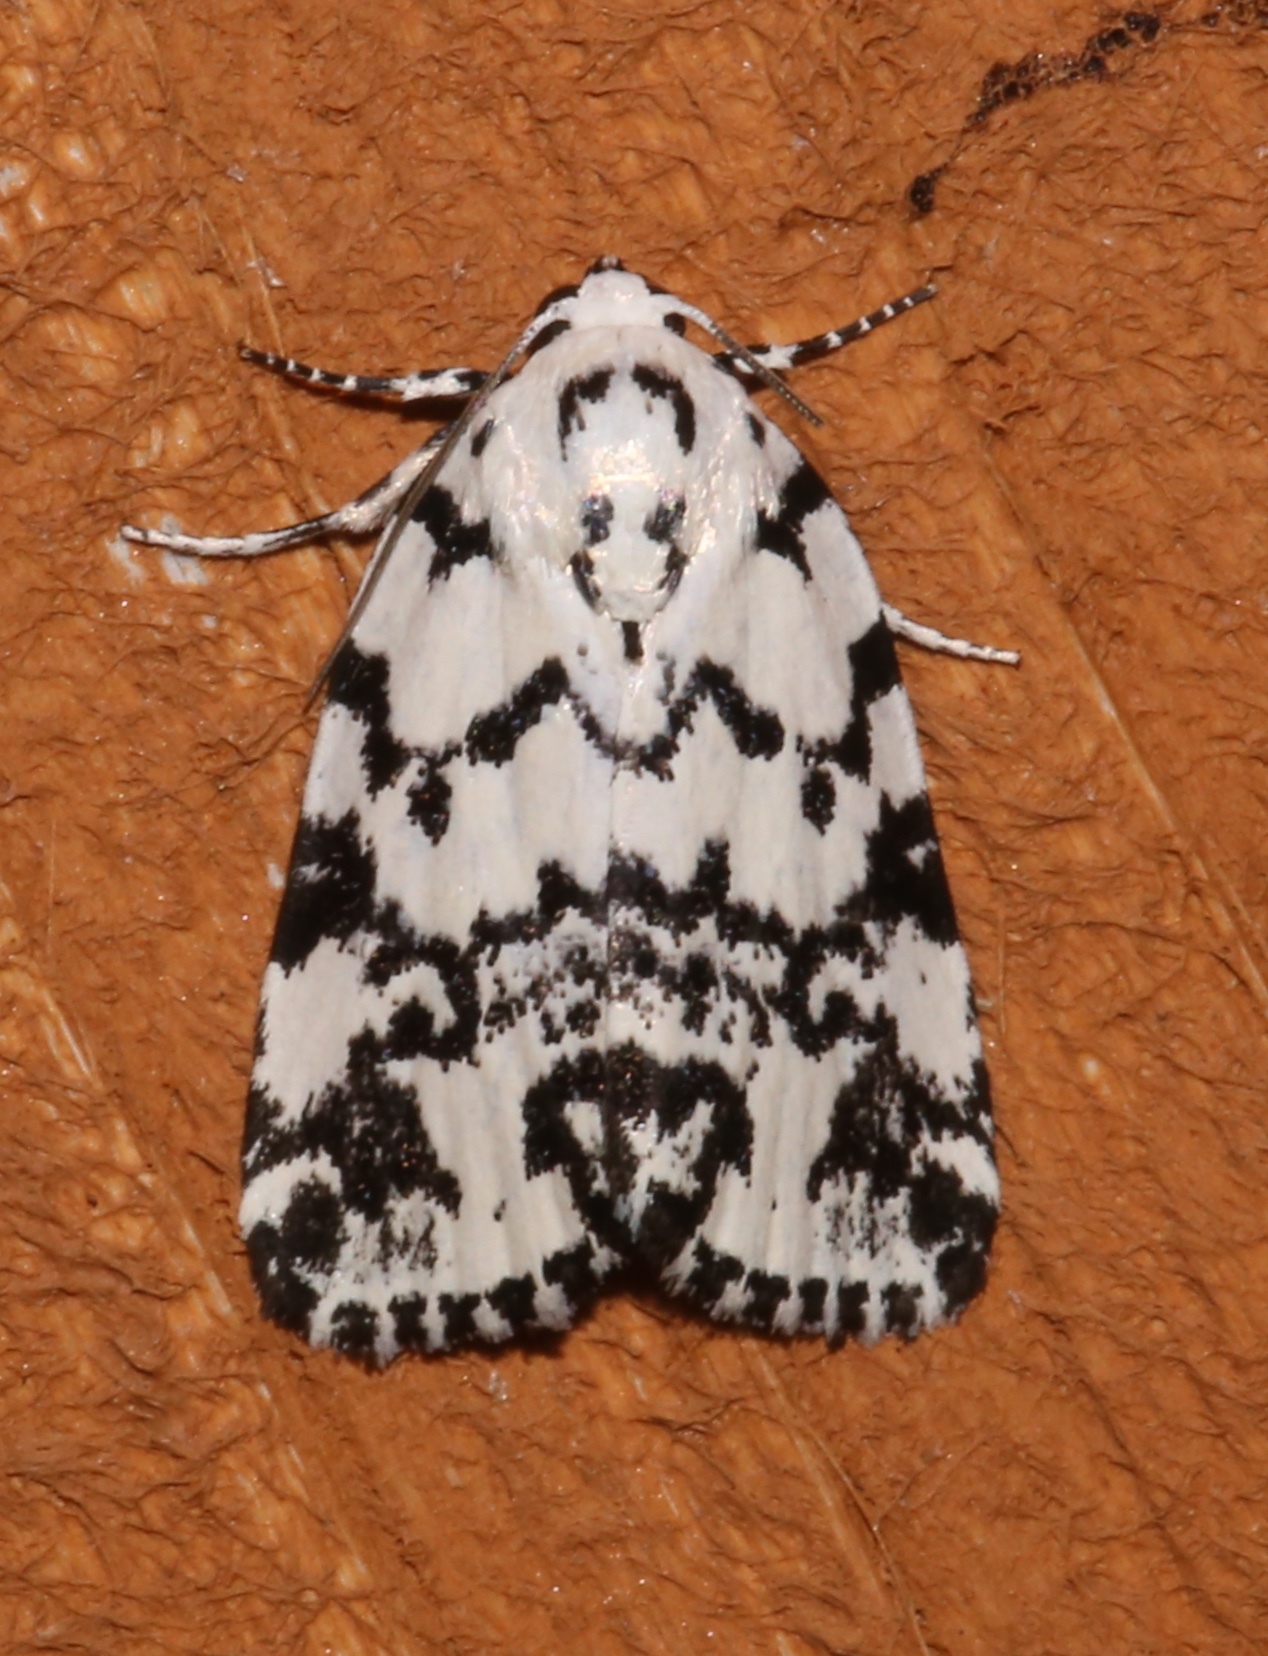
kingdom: Animalia
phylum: Arthropoda
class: Insecta
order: Lepidoptera
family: Noctuidae
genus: Polygrammate
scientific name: Polygrammate hebraeicum
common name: Hebrew moth
